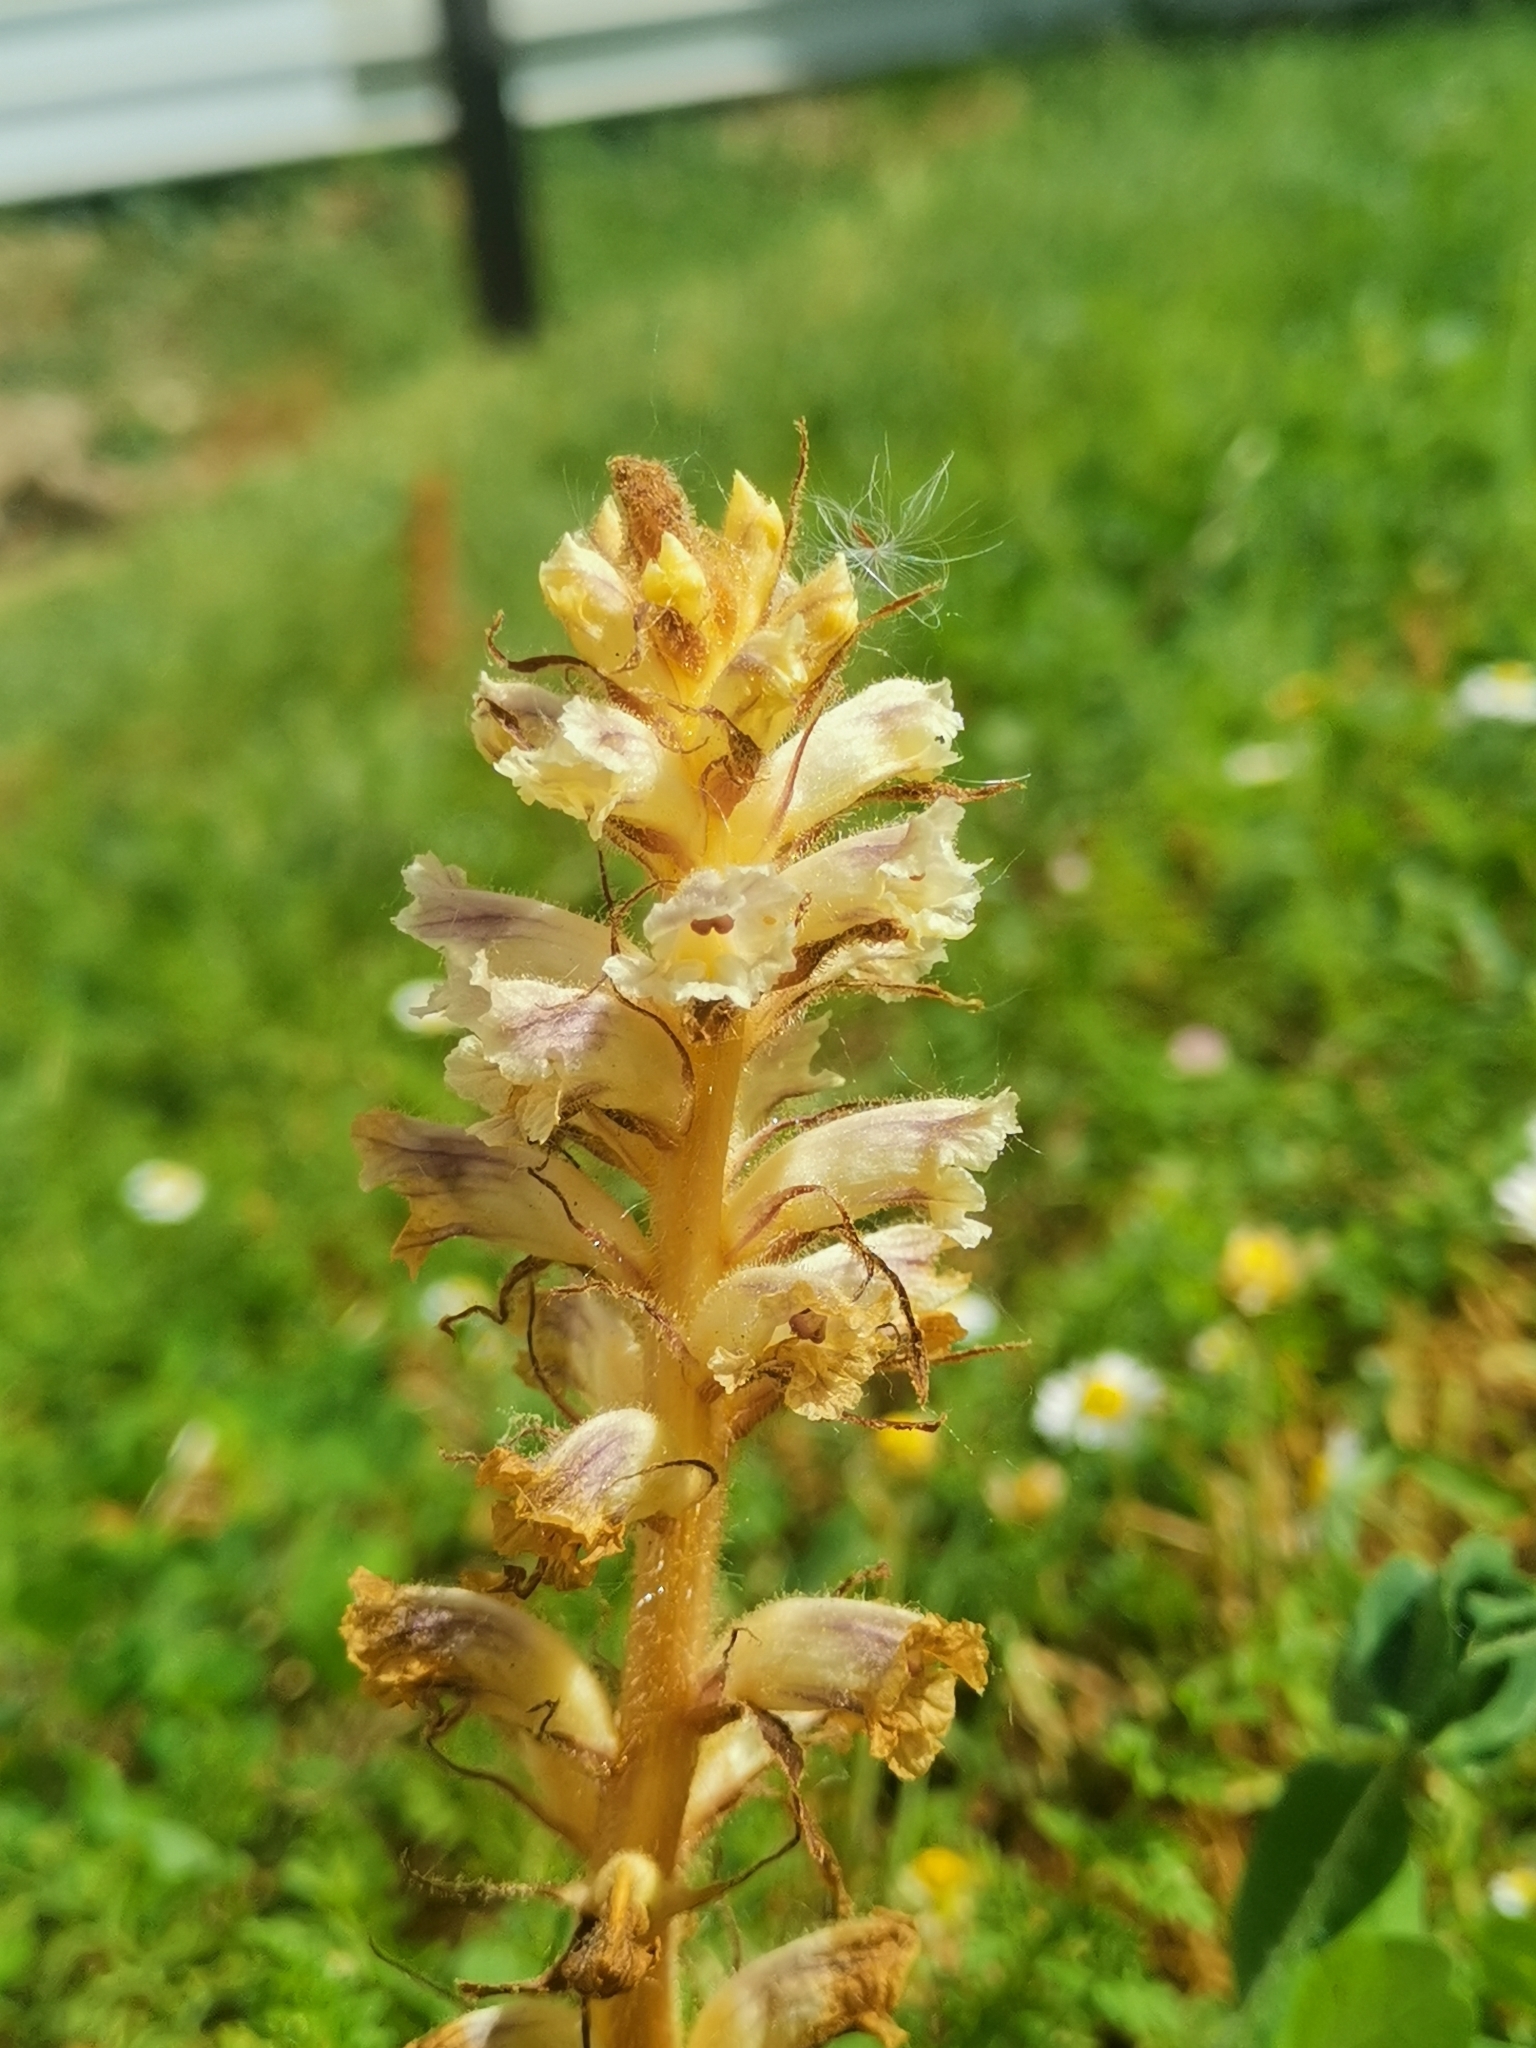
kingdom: Plantae
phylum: Tracheophyta
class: Magnoliopsida
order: Lamiales
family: Orobanchaceae
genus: Orobanche
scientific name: Orobanche minor
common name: Common broomrape
